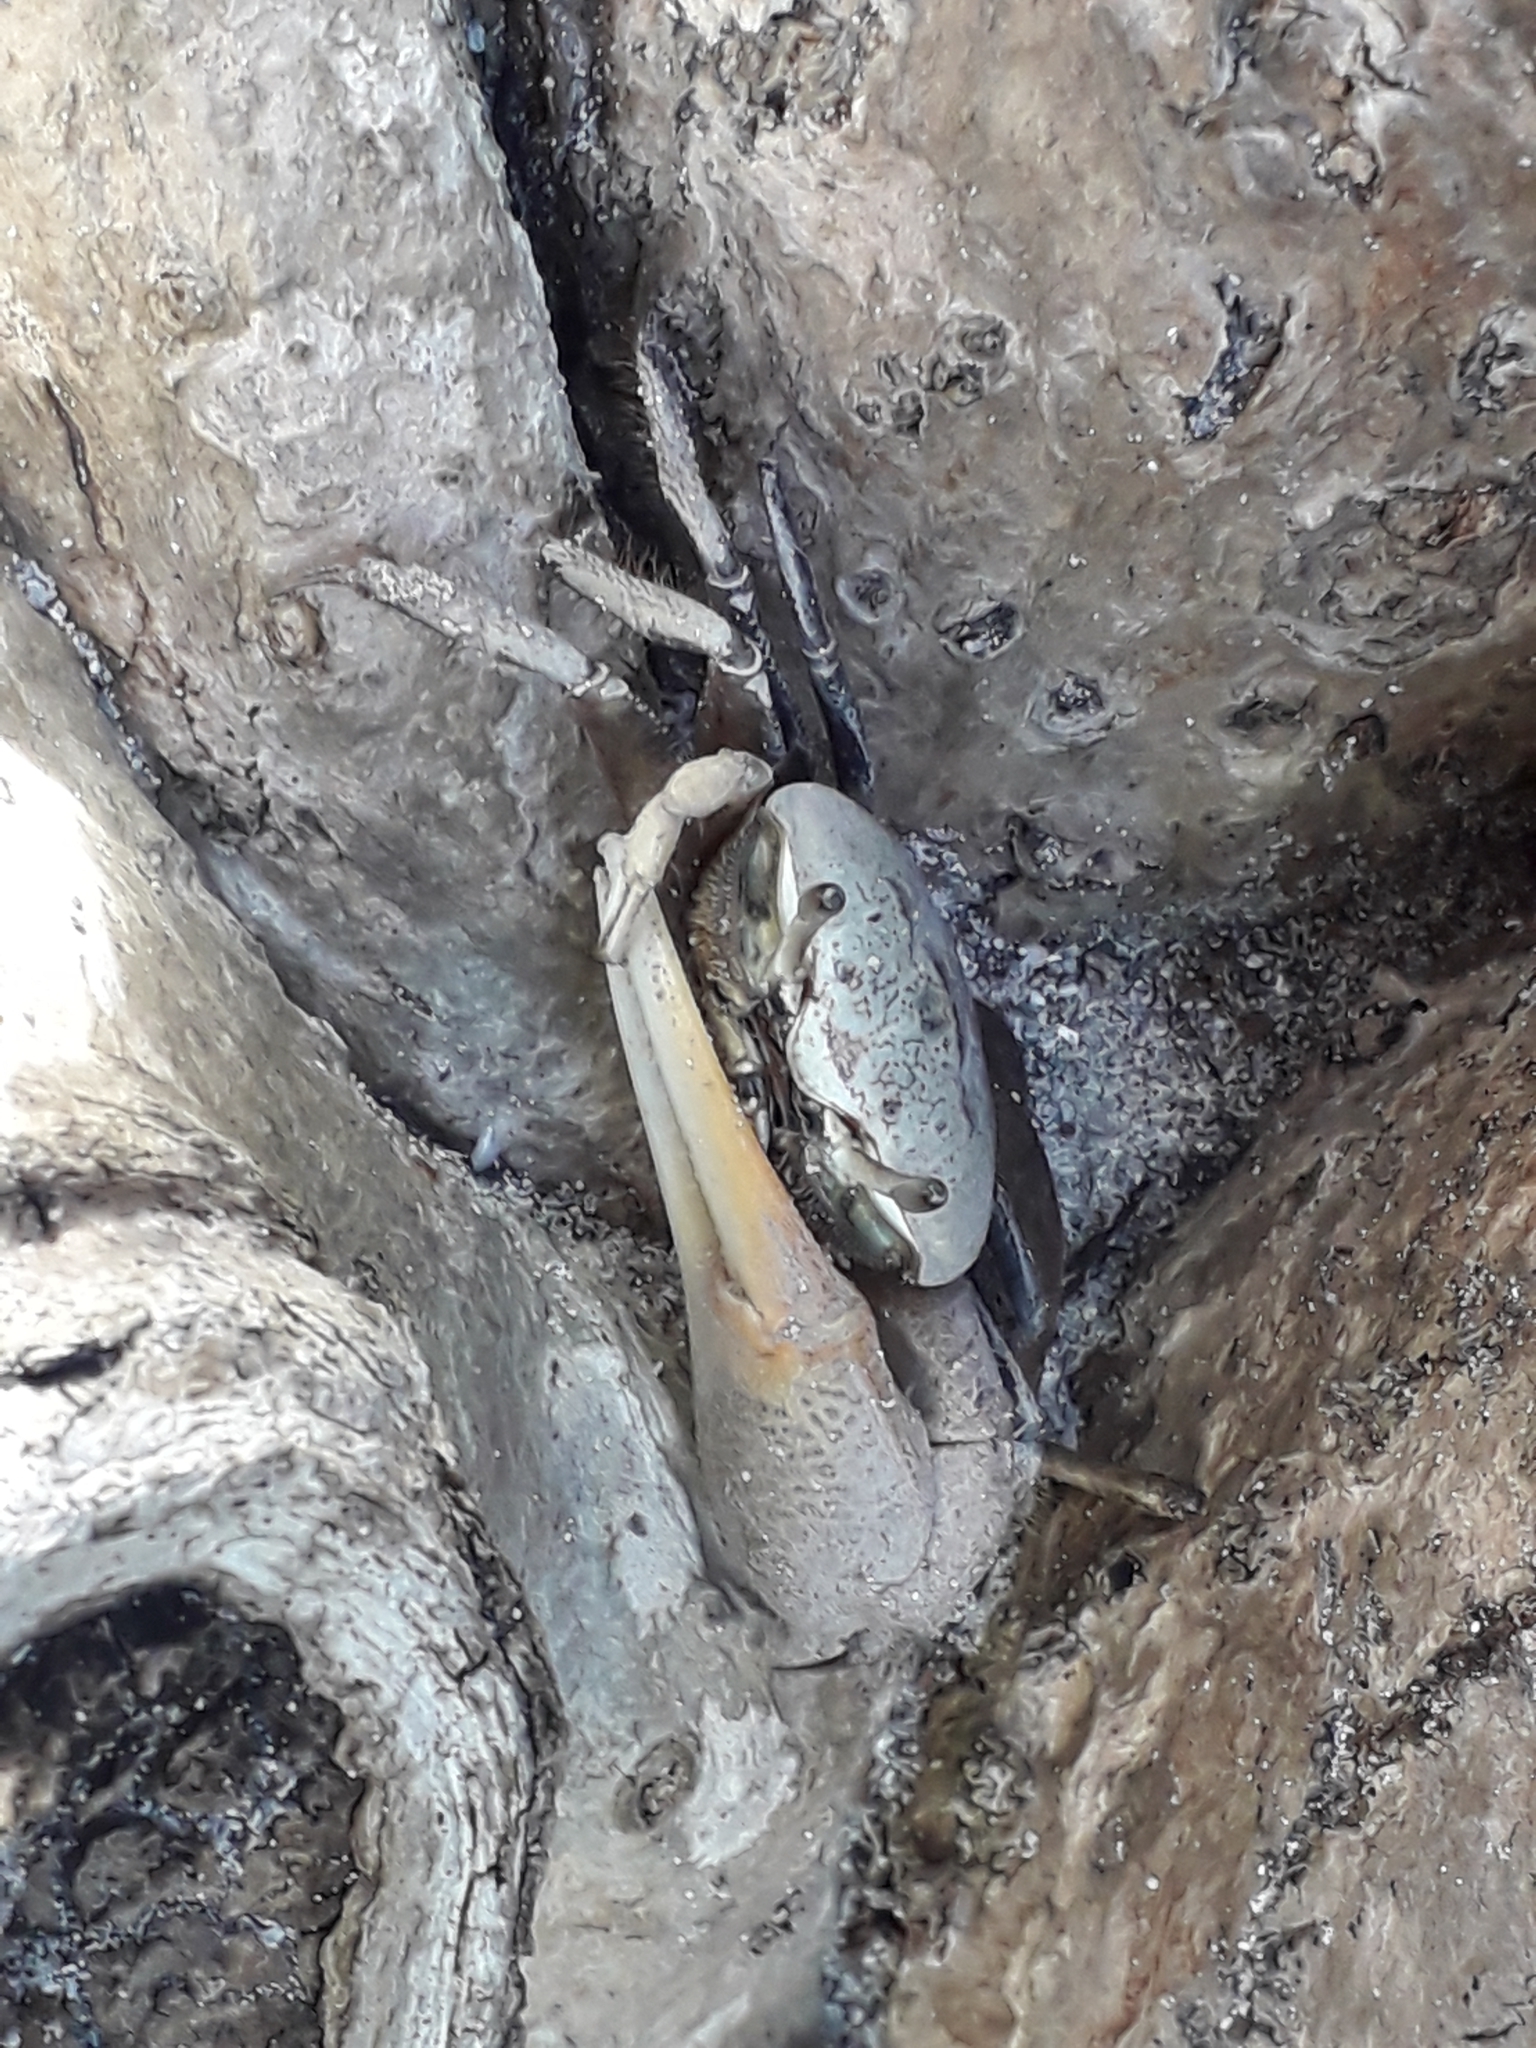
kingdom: Animalia
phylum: Arthropoda
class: Malacostraca
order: Decapoda
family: Ocypodidae
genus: Minuca
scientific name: Minuca rapax
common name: Rapacious fiddler crab
